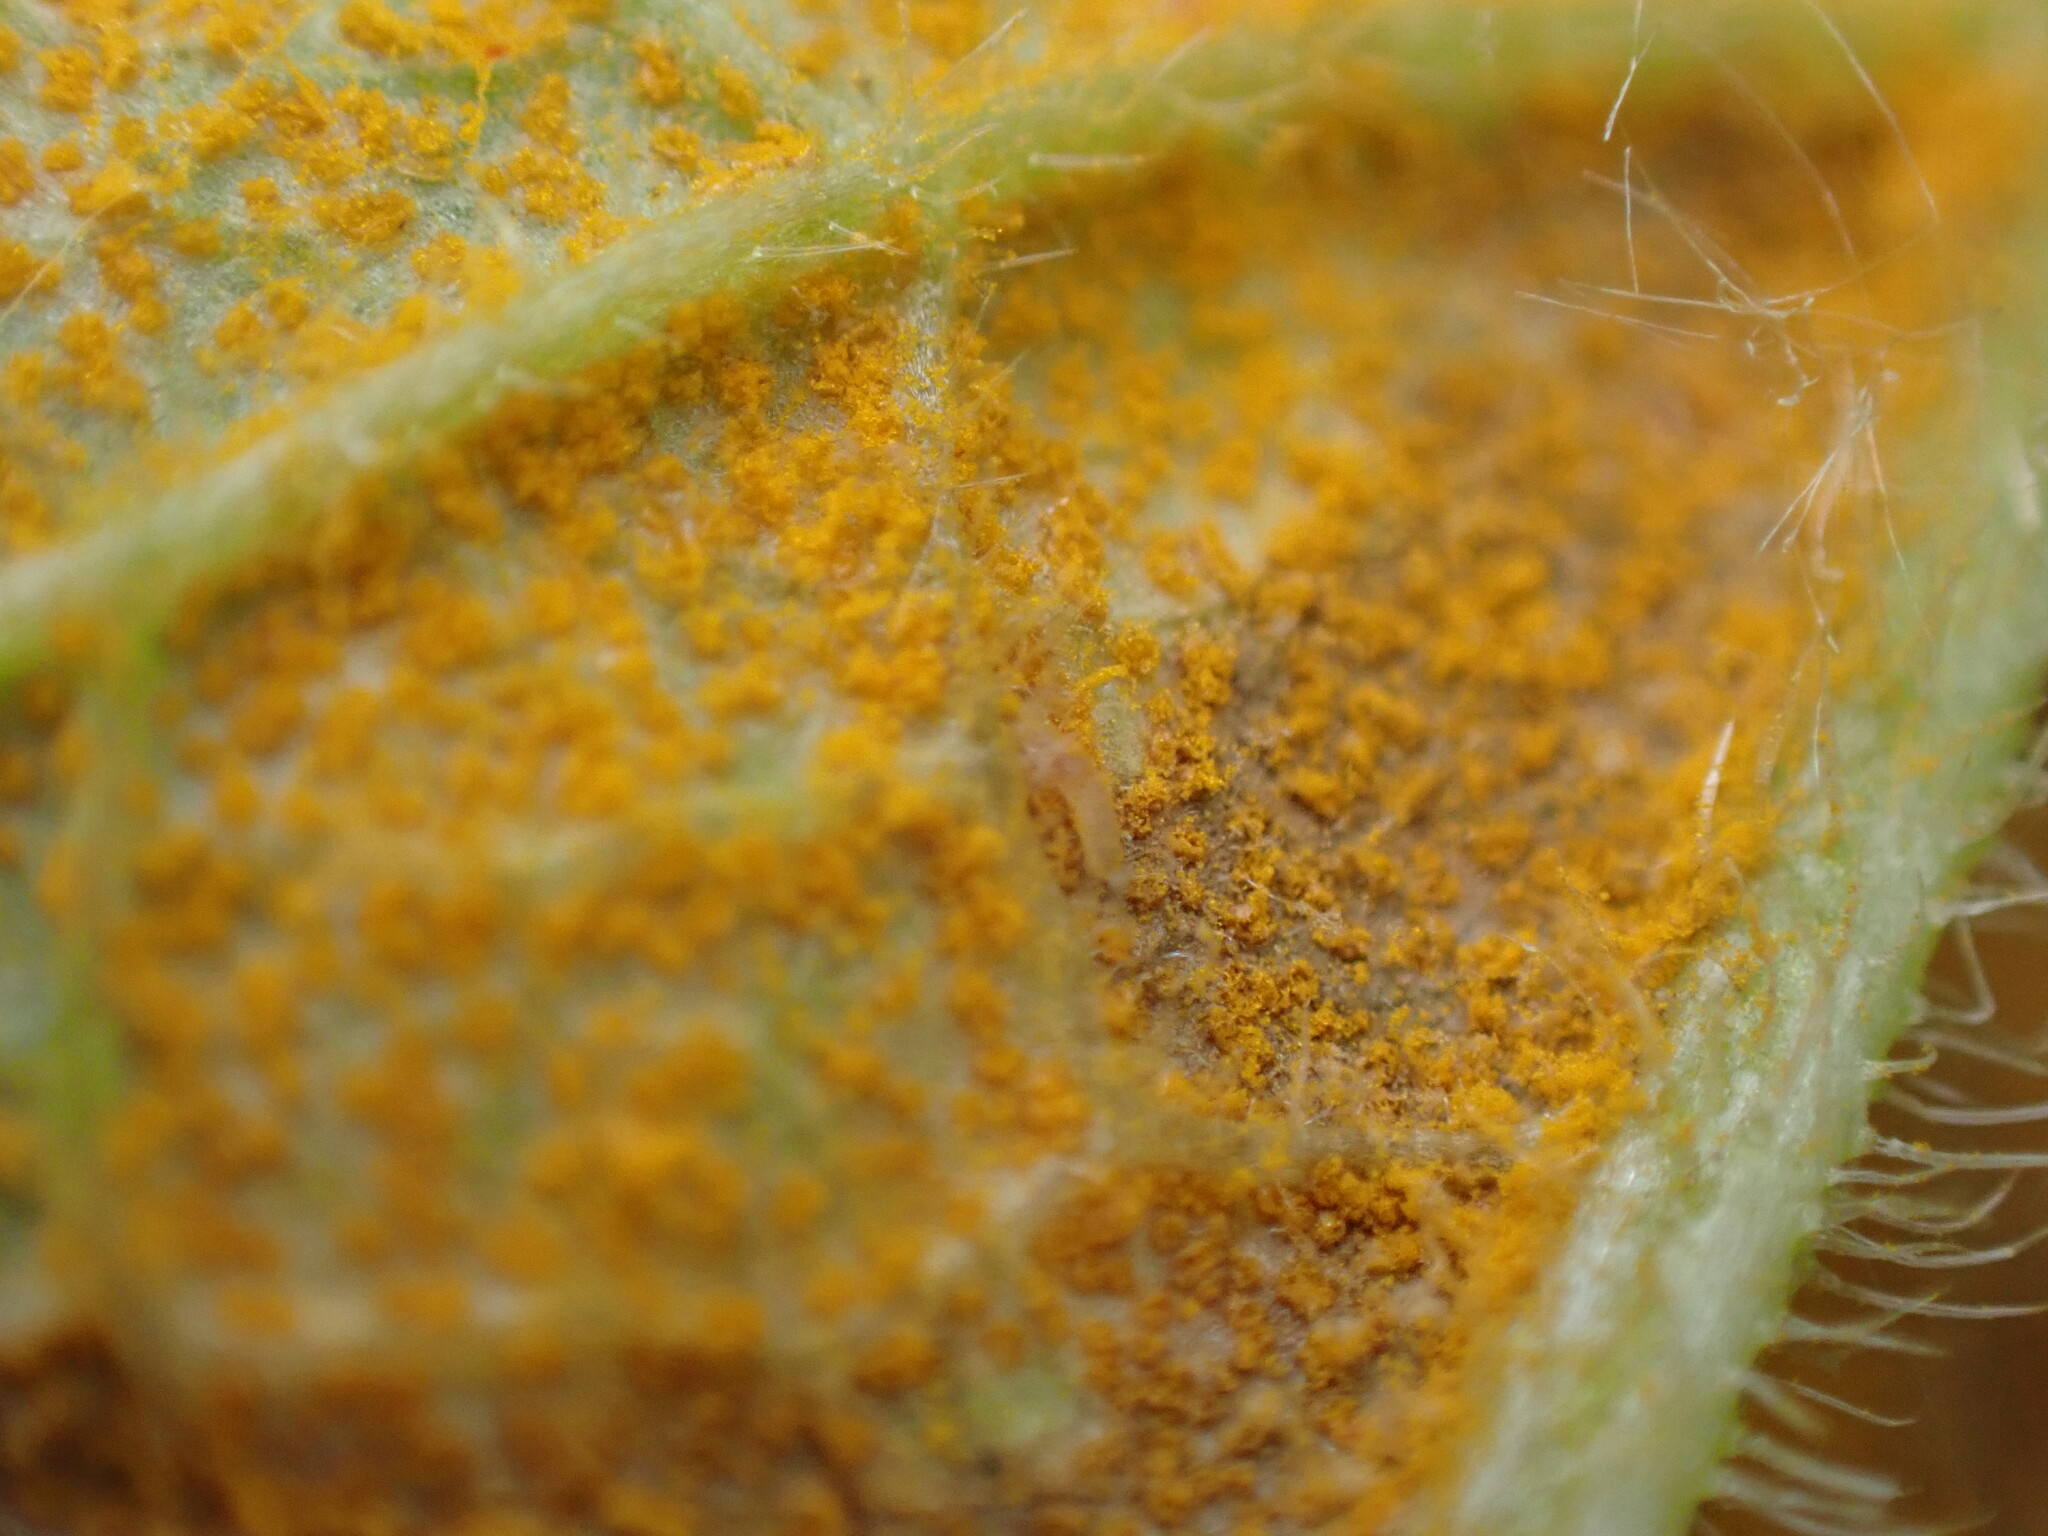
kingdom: Fungi
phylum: Basidiomycota
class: Pucciniomycetes
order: Pucciniales
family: Pucciniastraceae
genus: Pucciniastrum
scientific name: Pucciniastrum symphyti
